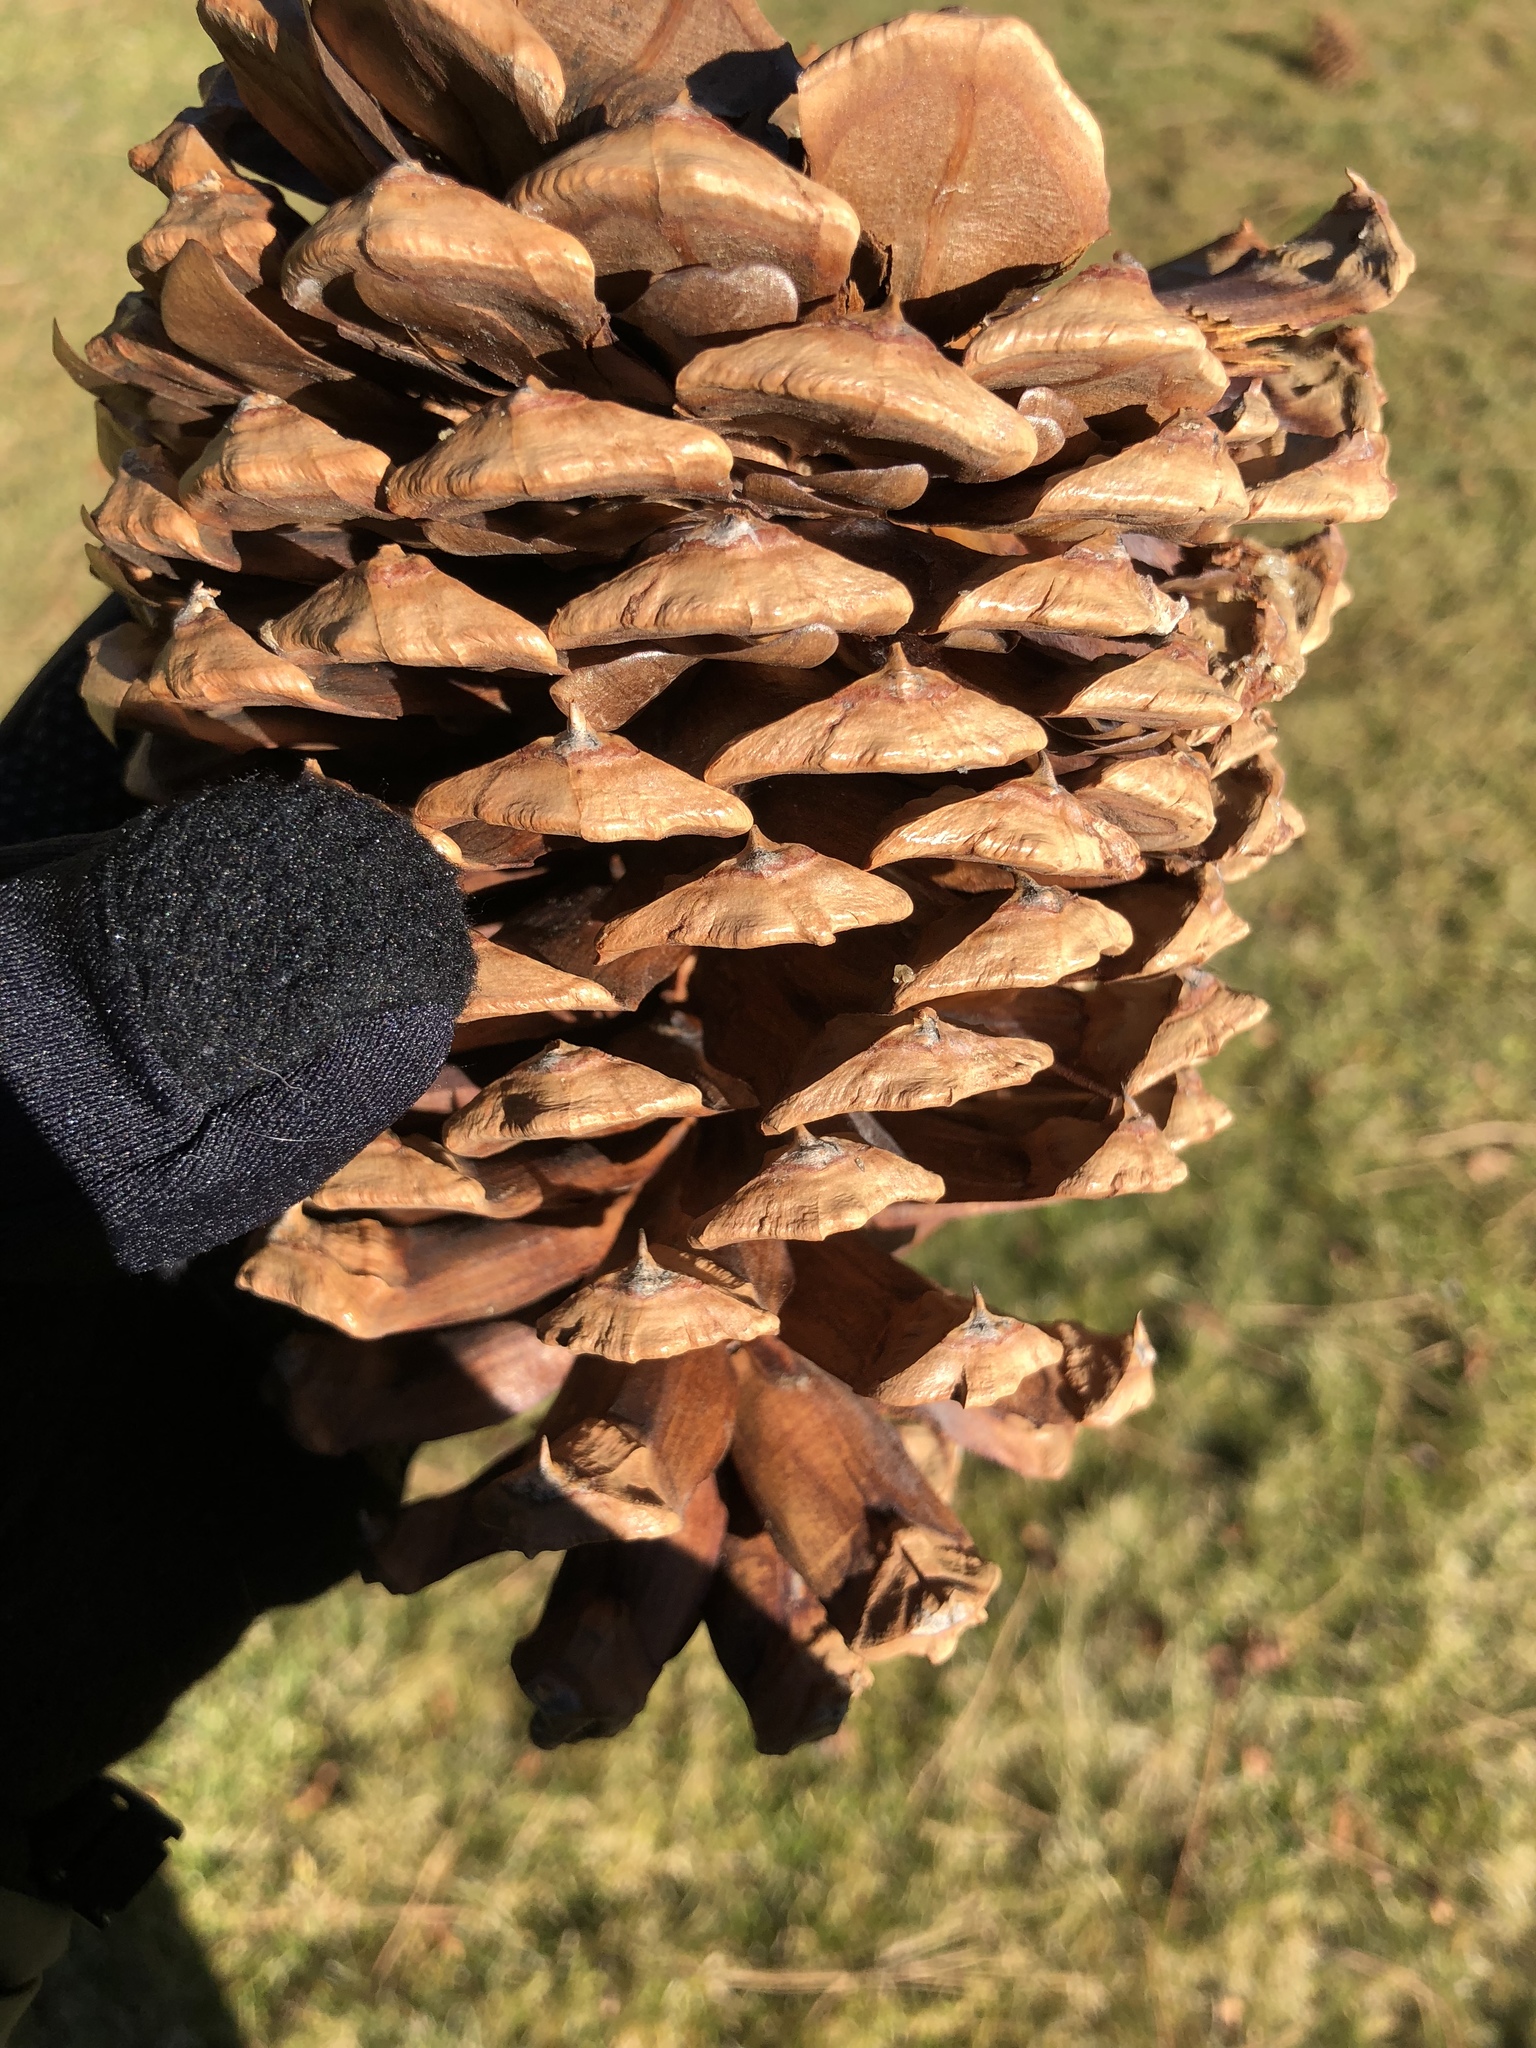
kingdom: Plantae
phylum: Tracheophyta
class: Pinopsida
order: Pinales
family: Pinaceae
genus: Pinus
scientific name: Pinus jeffreyi
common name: Jeffrey pine
